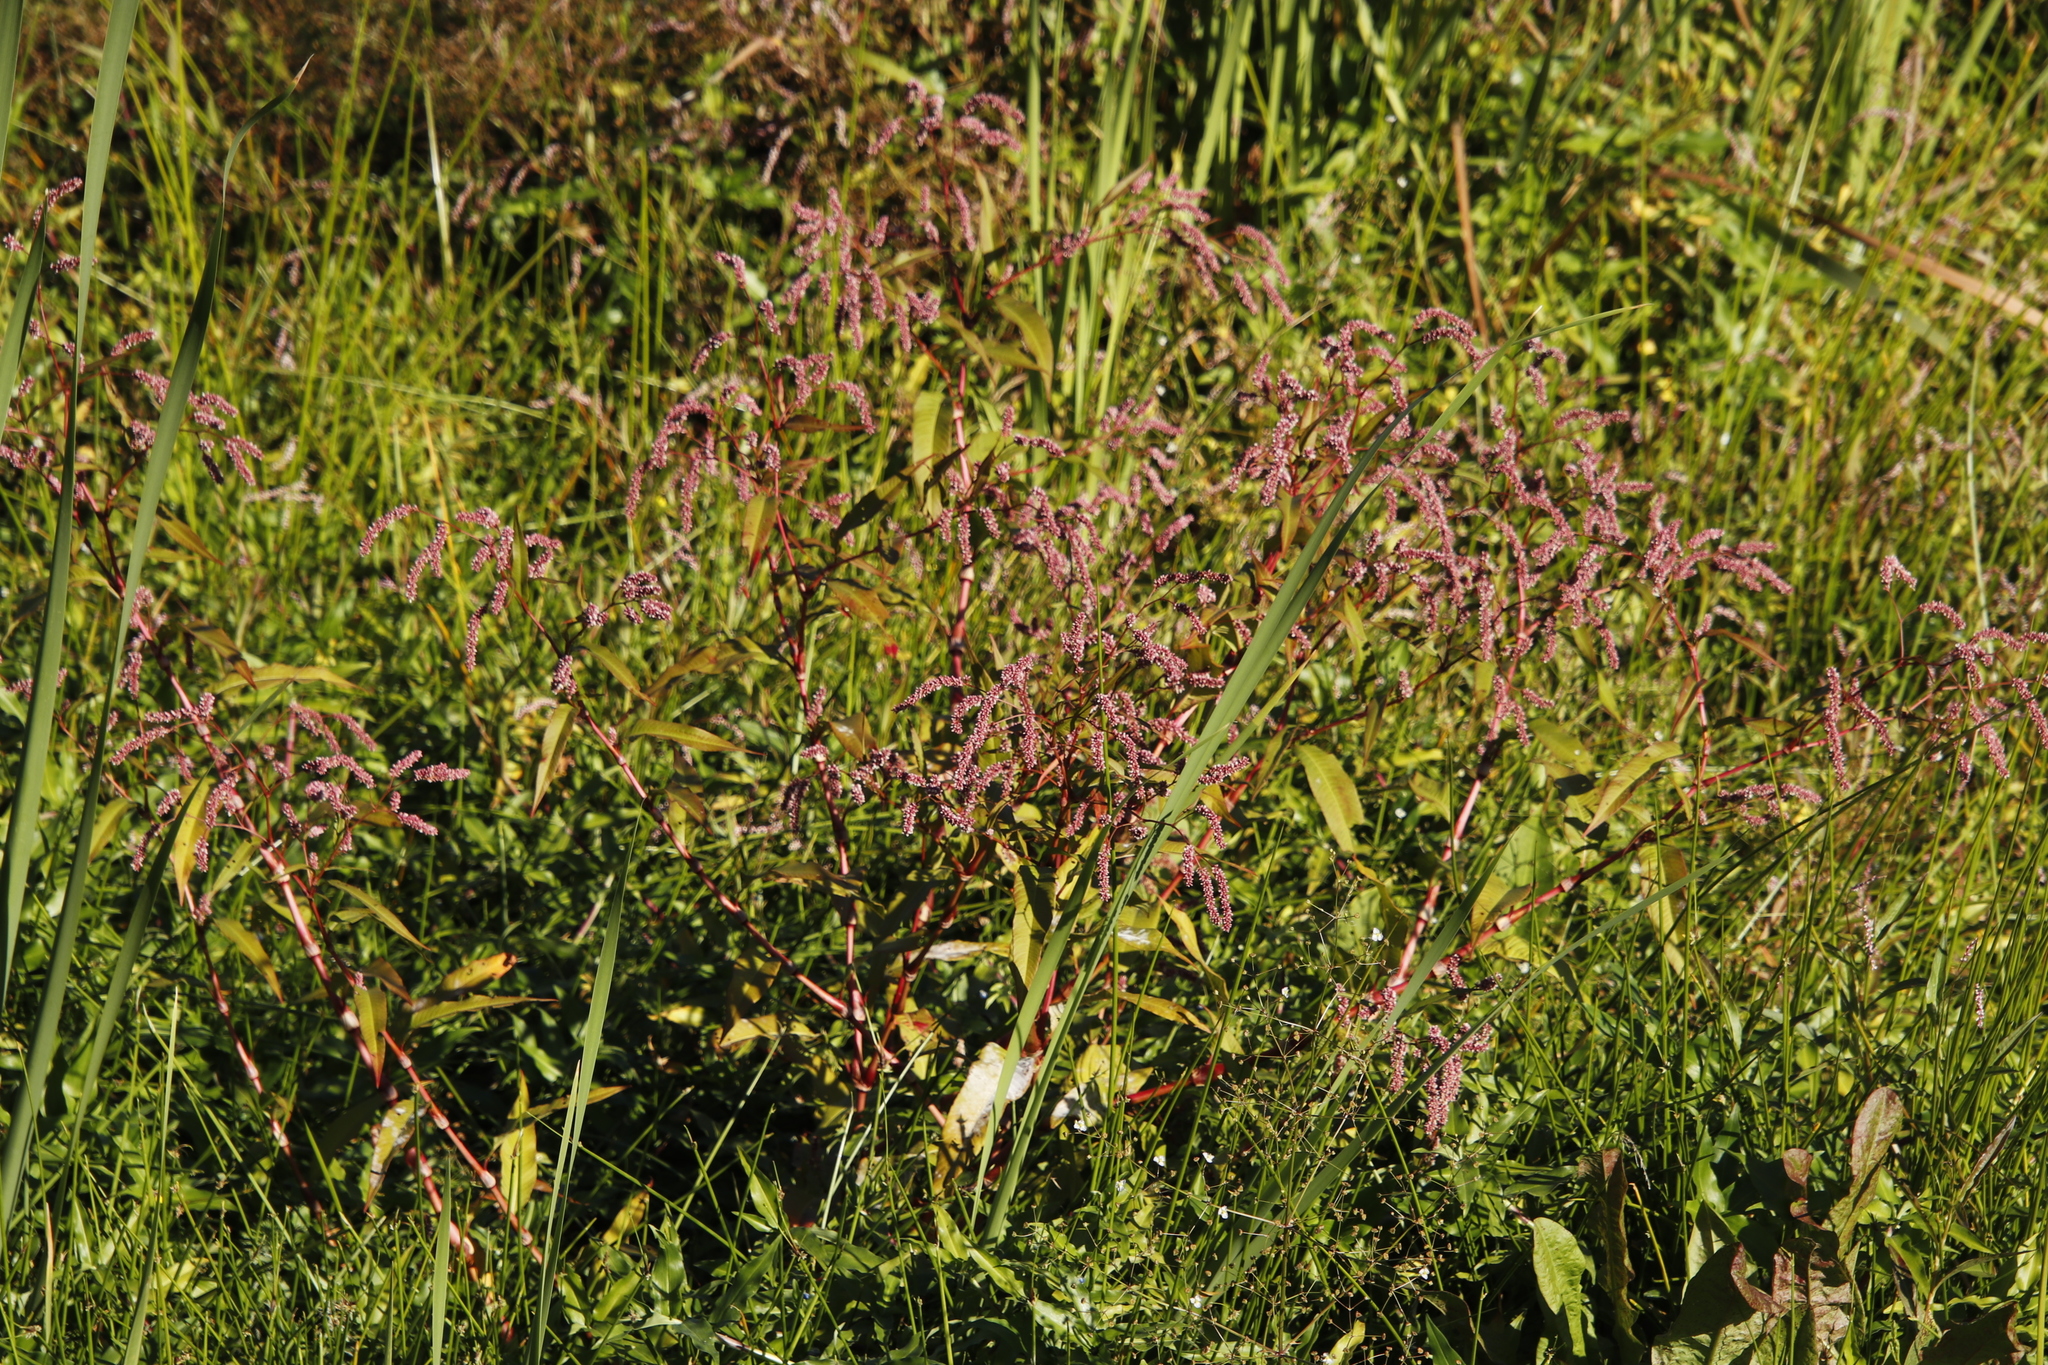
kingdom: Plantae
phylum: Tracheophyta
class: Magnoliopsida
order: Caryophyllales
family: Polygonaceae
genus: Persicaria
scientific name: Persicaria lapathifolia
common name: Curlytop knotweed
